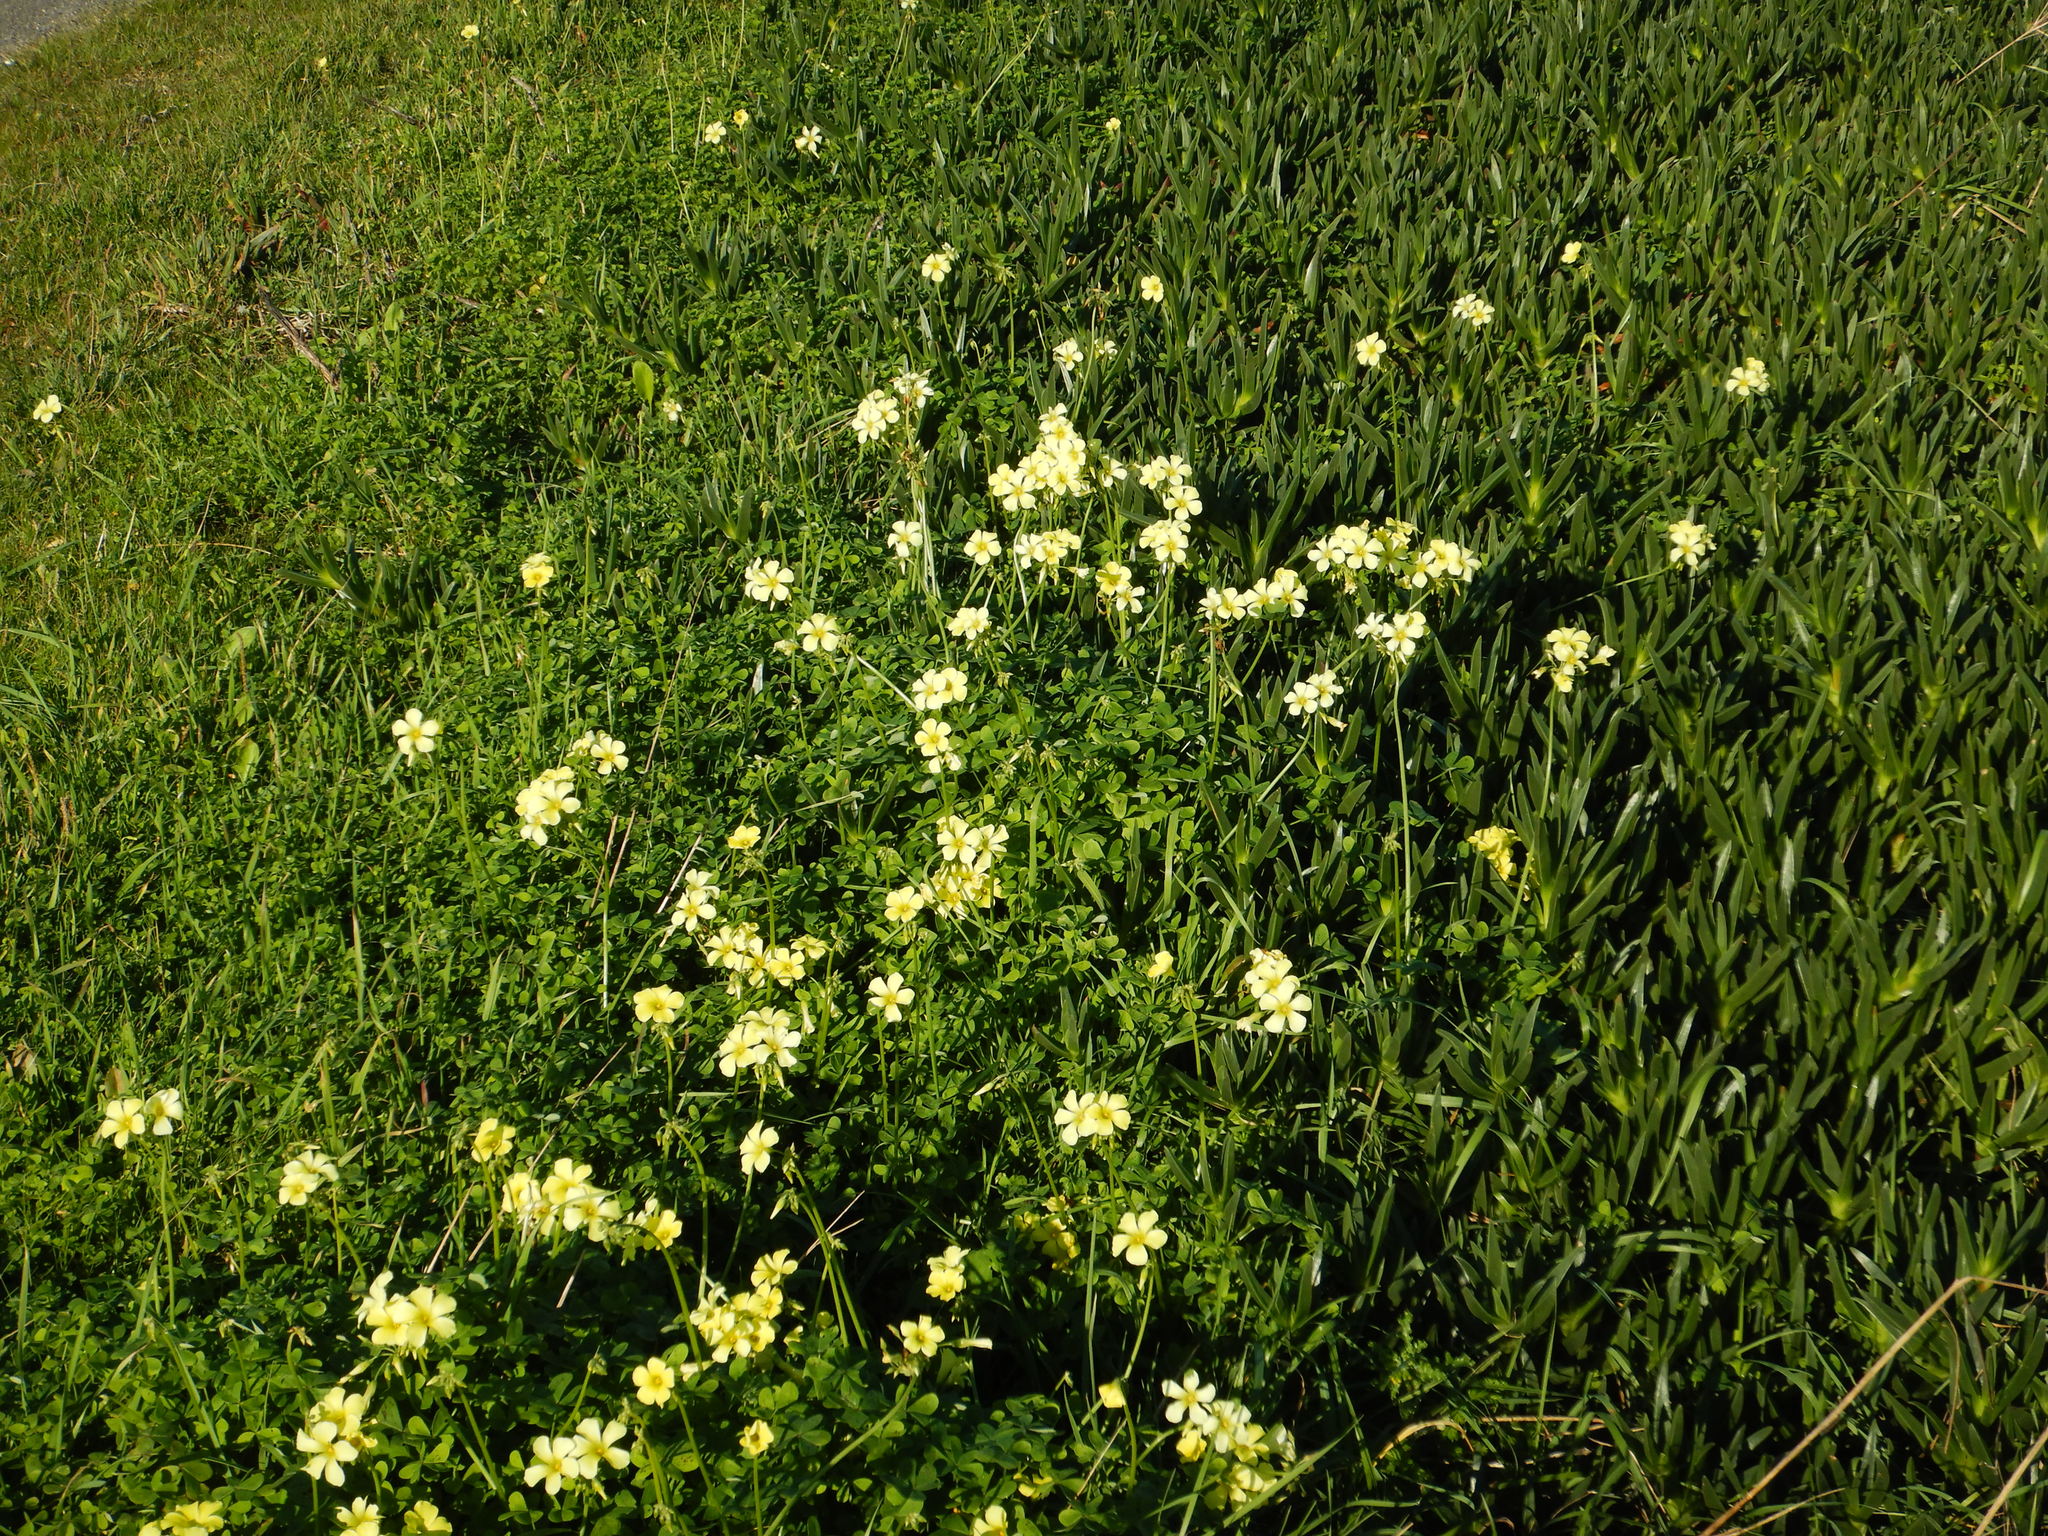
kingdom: Plantae
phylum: Tracheophyta
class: Magnoliopsida
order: Oxalidales
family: Oxalidaceae
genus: Oxalis
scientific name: Oxalis pes-caprae
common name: Bermuda-buttercup
